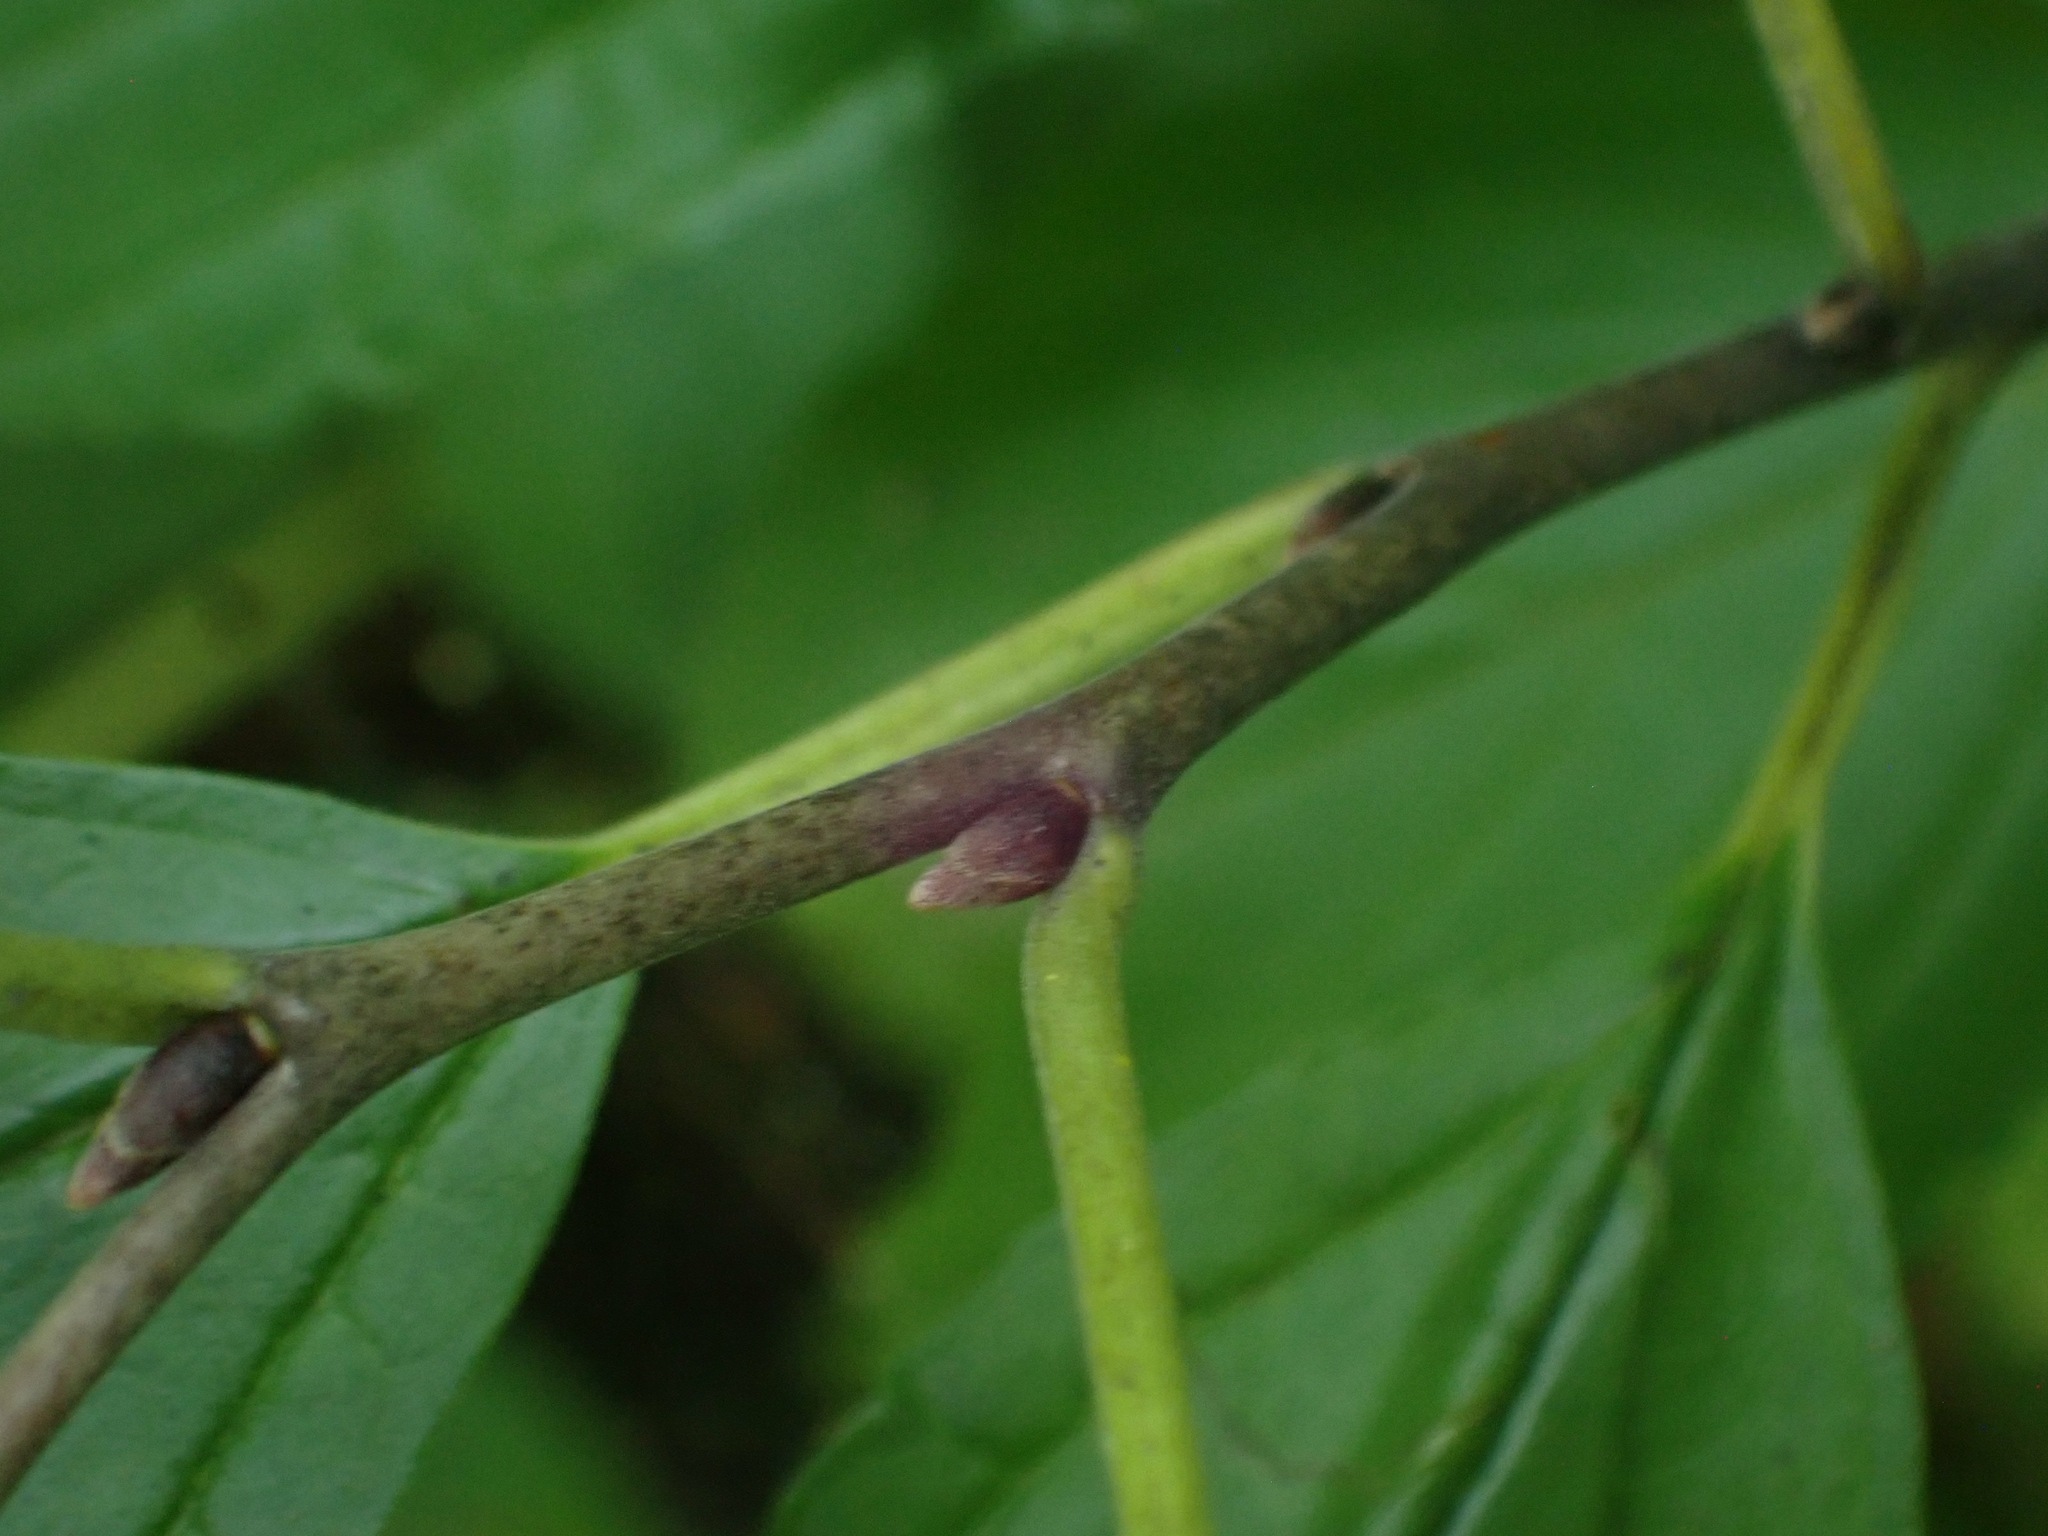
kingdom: Plantae
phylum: Tracheophyta
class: Magnoliopsida
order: Rosales
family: Rhamnaceae
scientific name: Rhamnaceae
